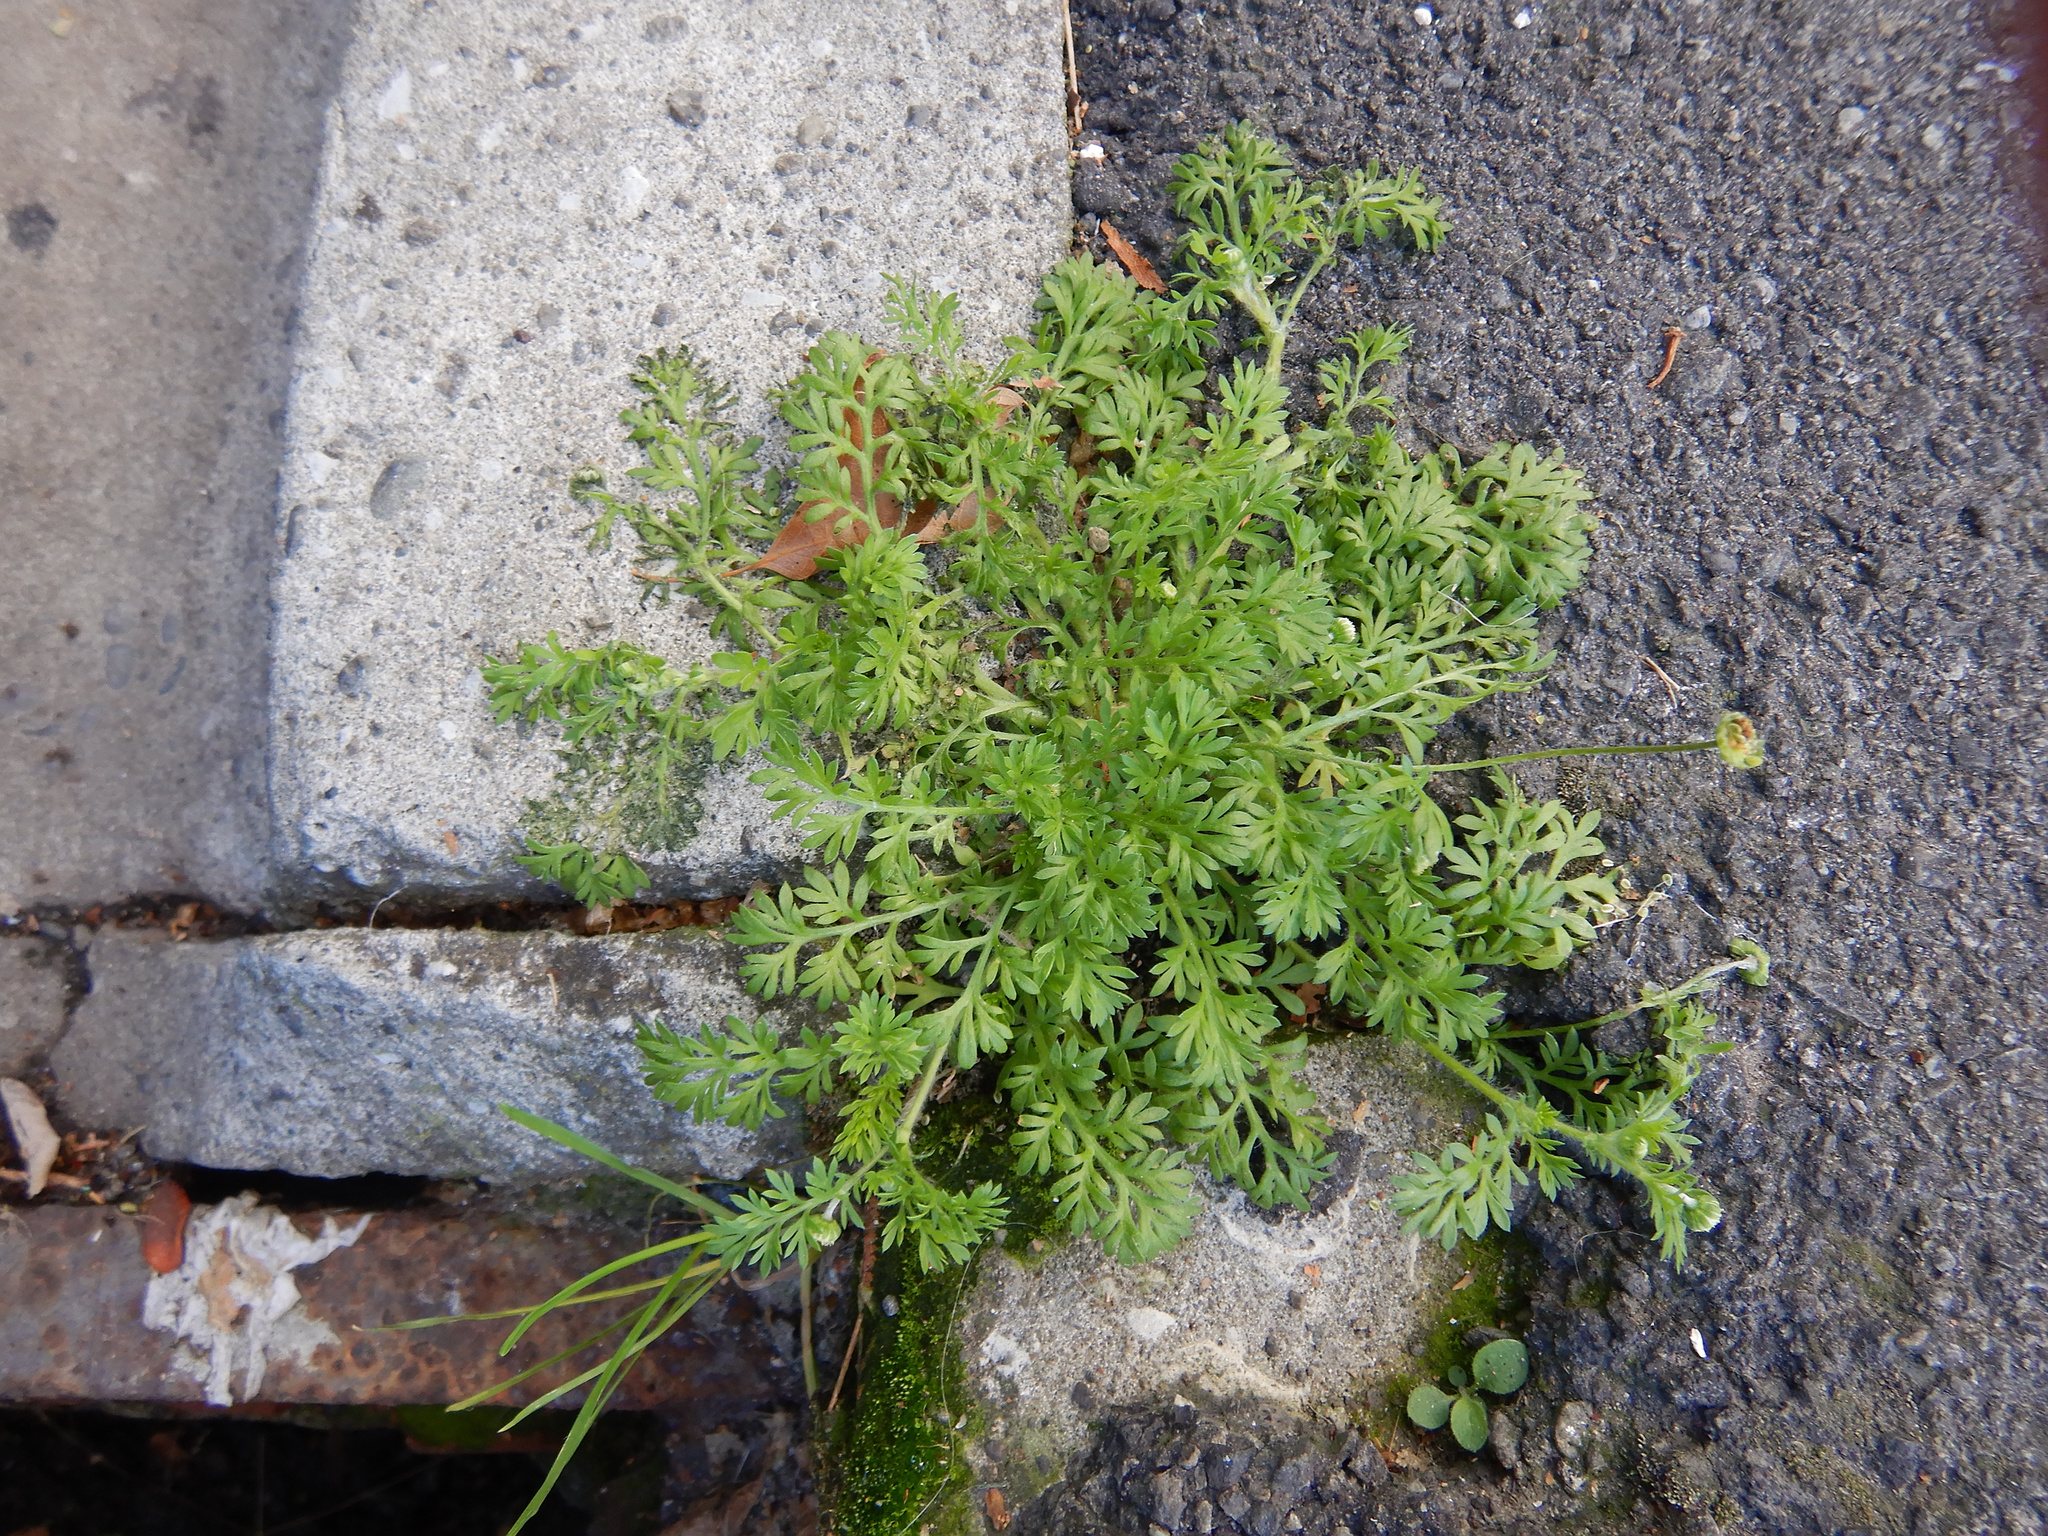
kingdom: Plantae
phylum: Tracheophyta
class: Magnoliopsida
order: Asterales
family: Asteraceae
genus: Cotula
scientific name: Cotula australis
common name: Australian waterbuttons
